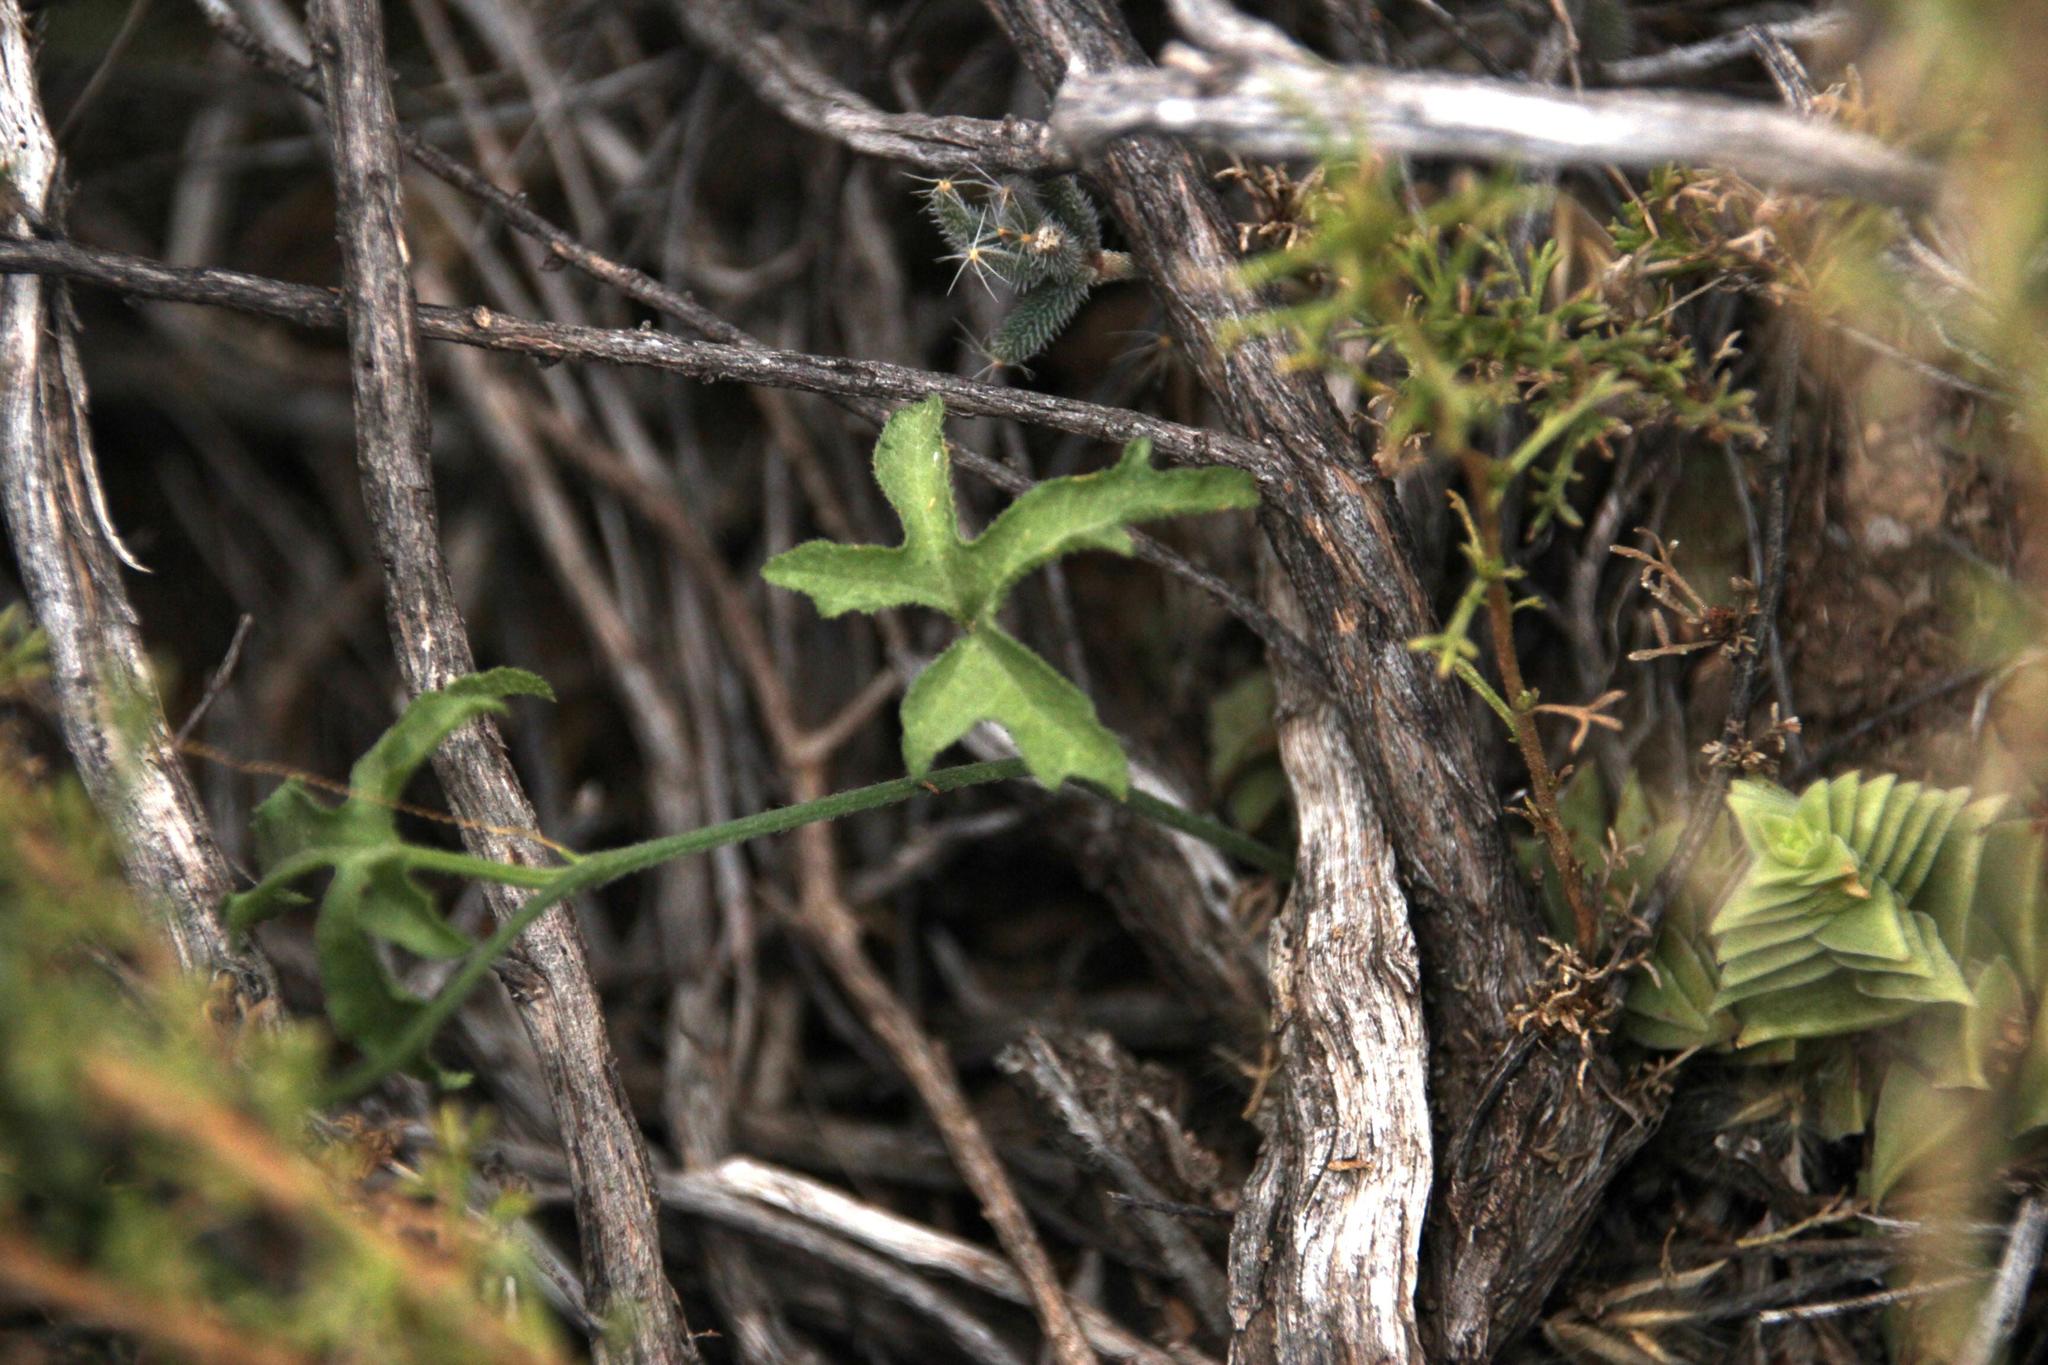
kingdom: Plantae
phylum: Tracheophyta
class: Magnoliopsida
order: Cucurbitales
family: Cucurbitaceae
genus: Kedrostis
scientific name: Kedrostis capensis
